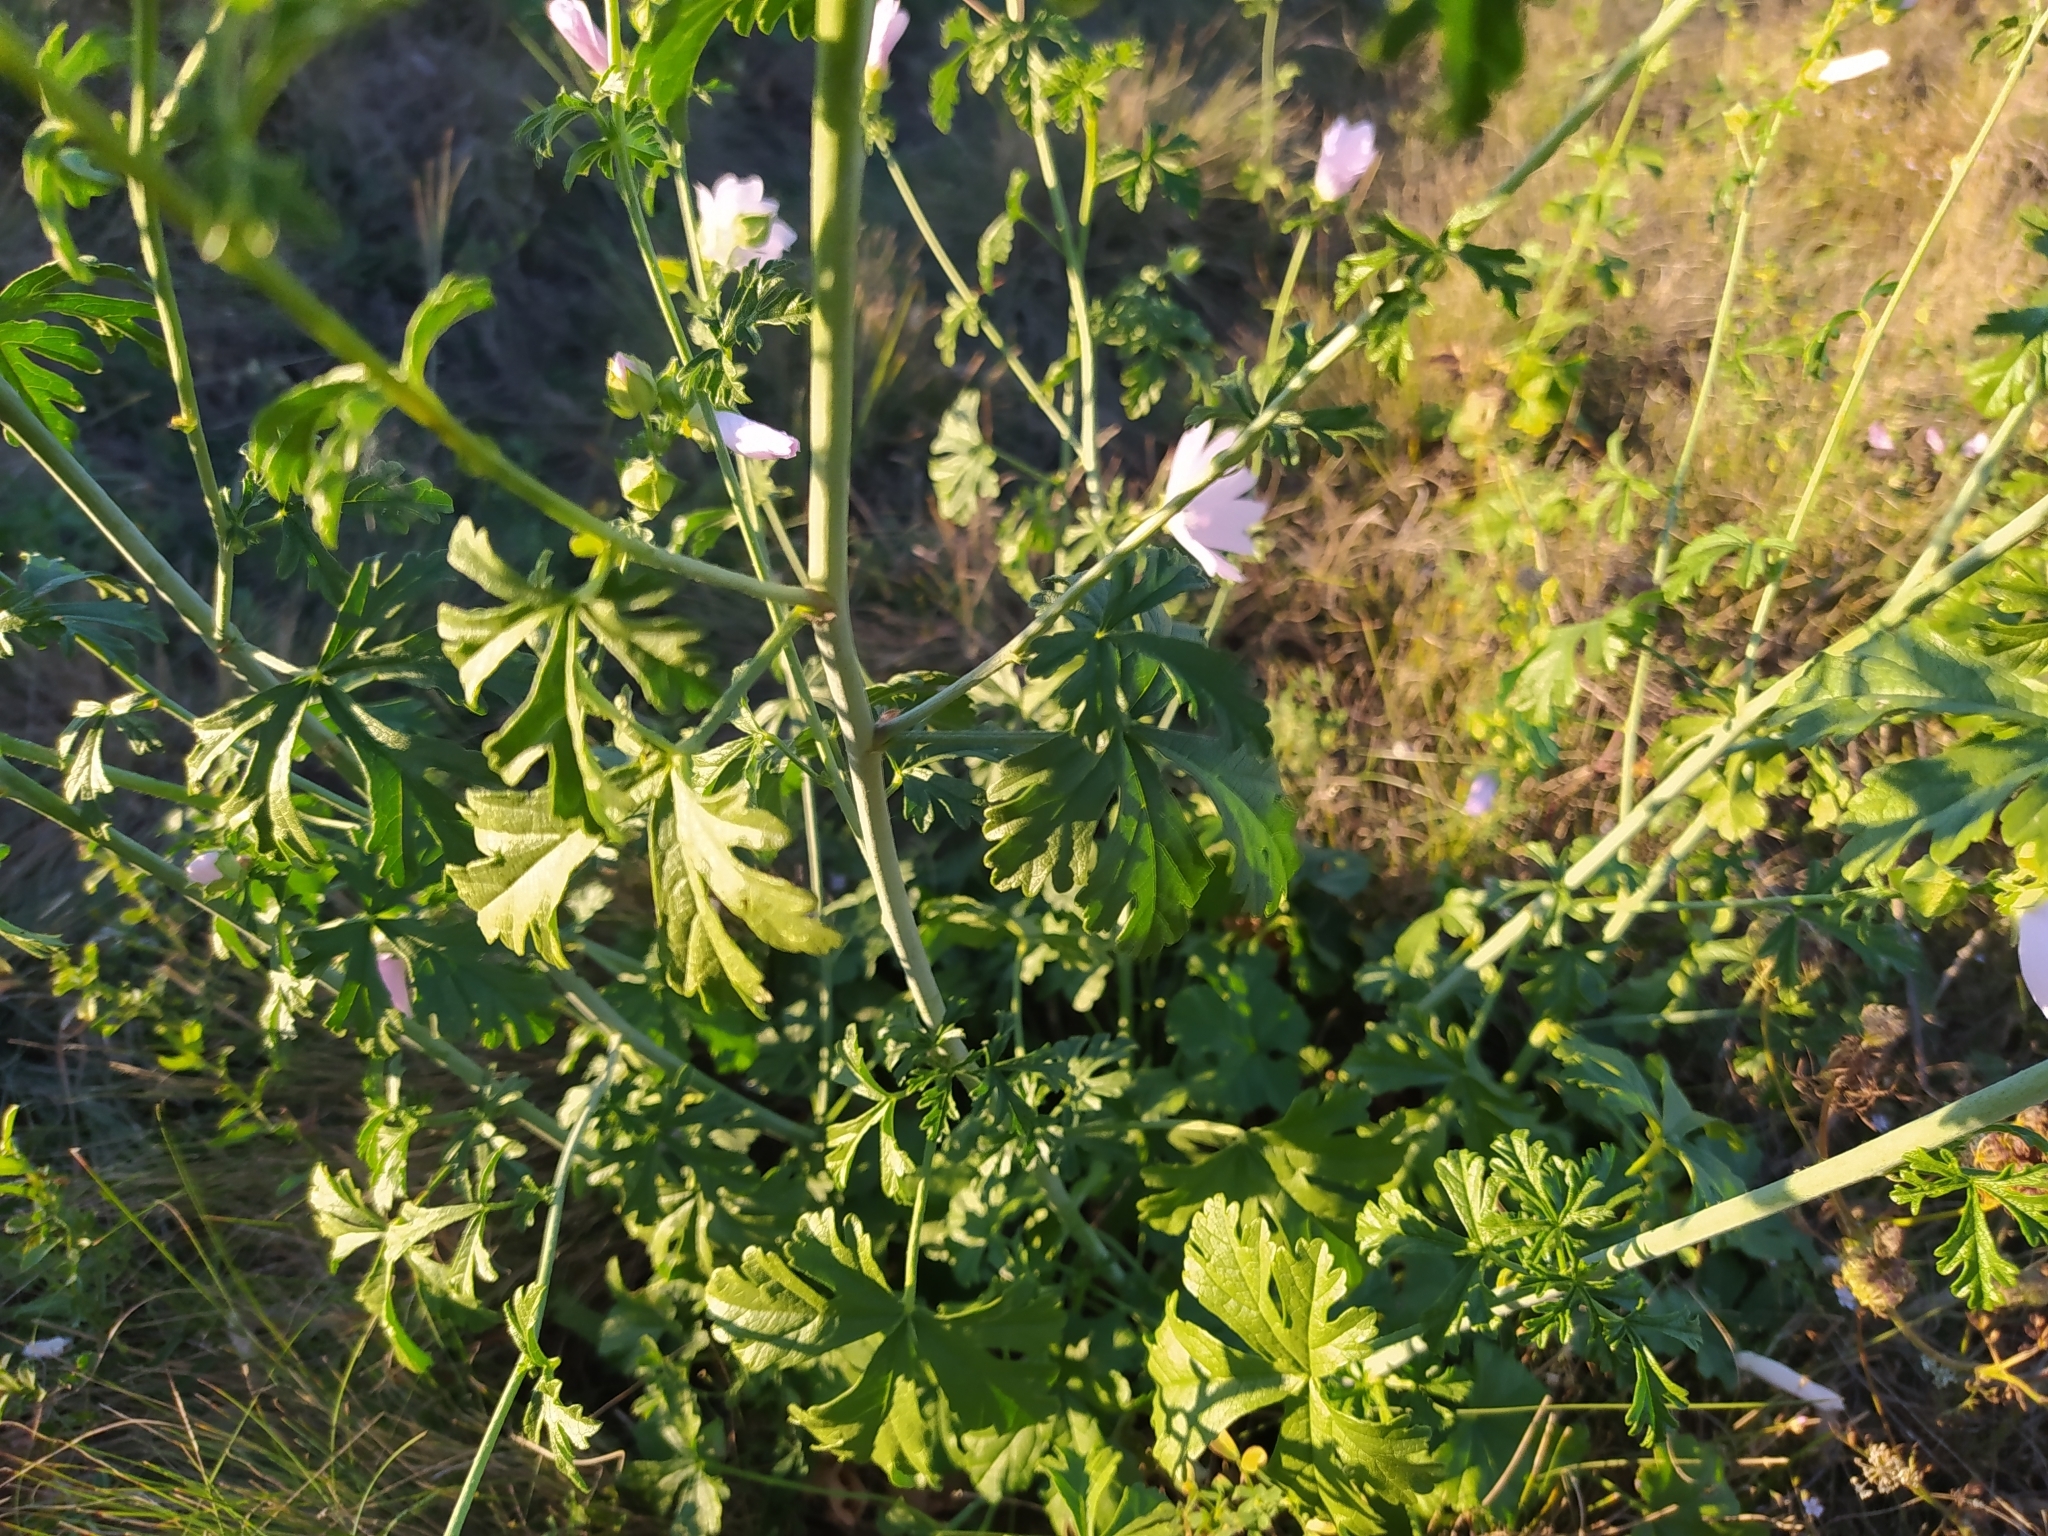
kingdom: Plantae
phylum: Tracheophyta
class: Magnoliopsida
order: Malvales
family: Malvaceae
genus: Malva
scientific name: Malva alcea
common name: Greater musk-mallow
